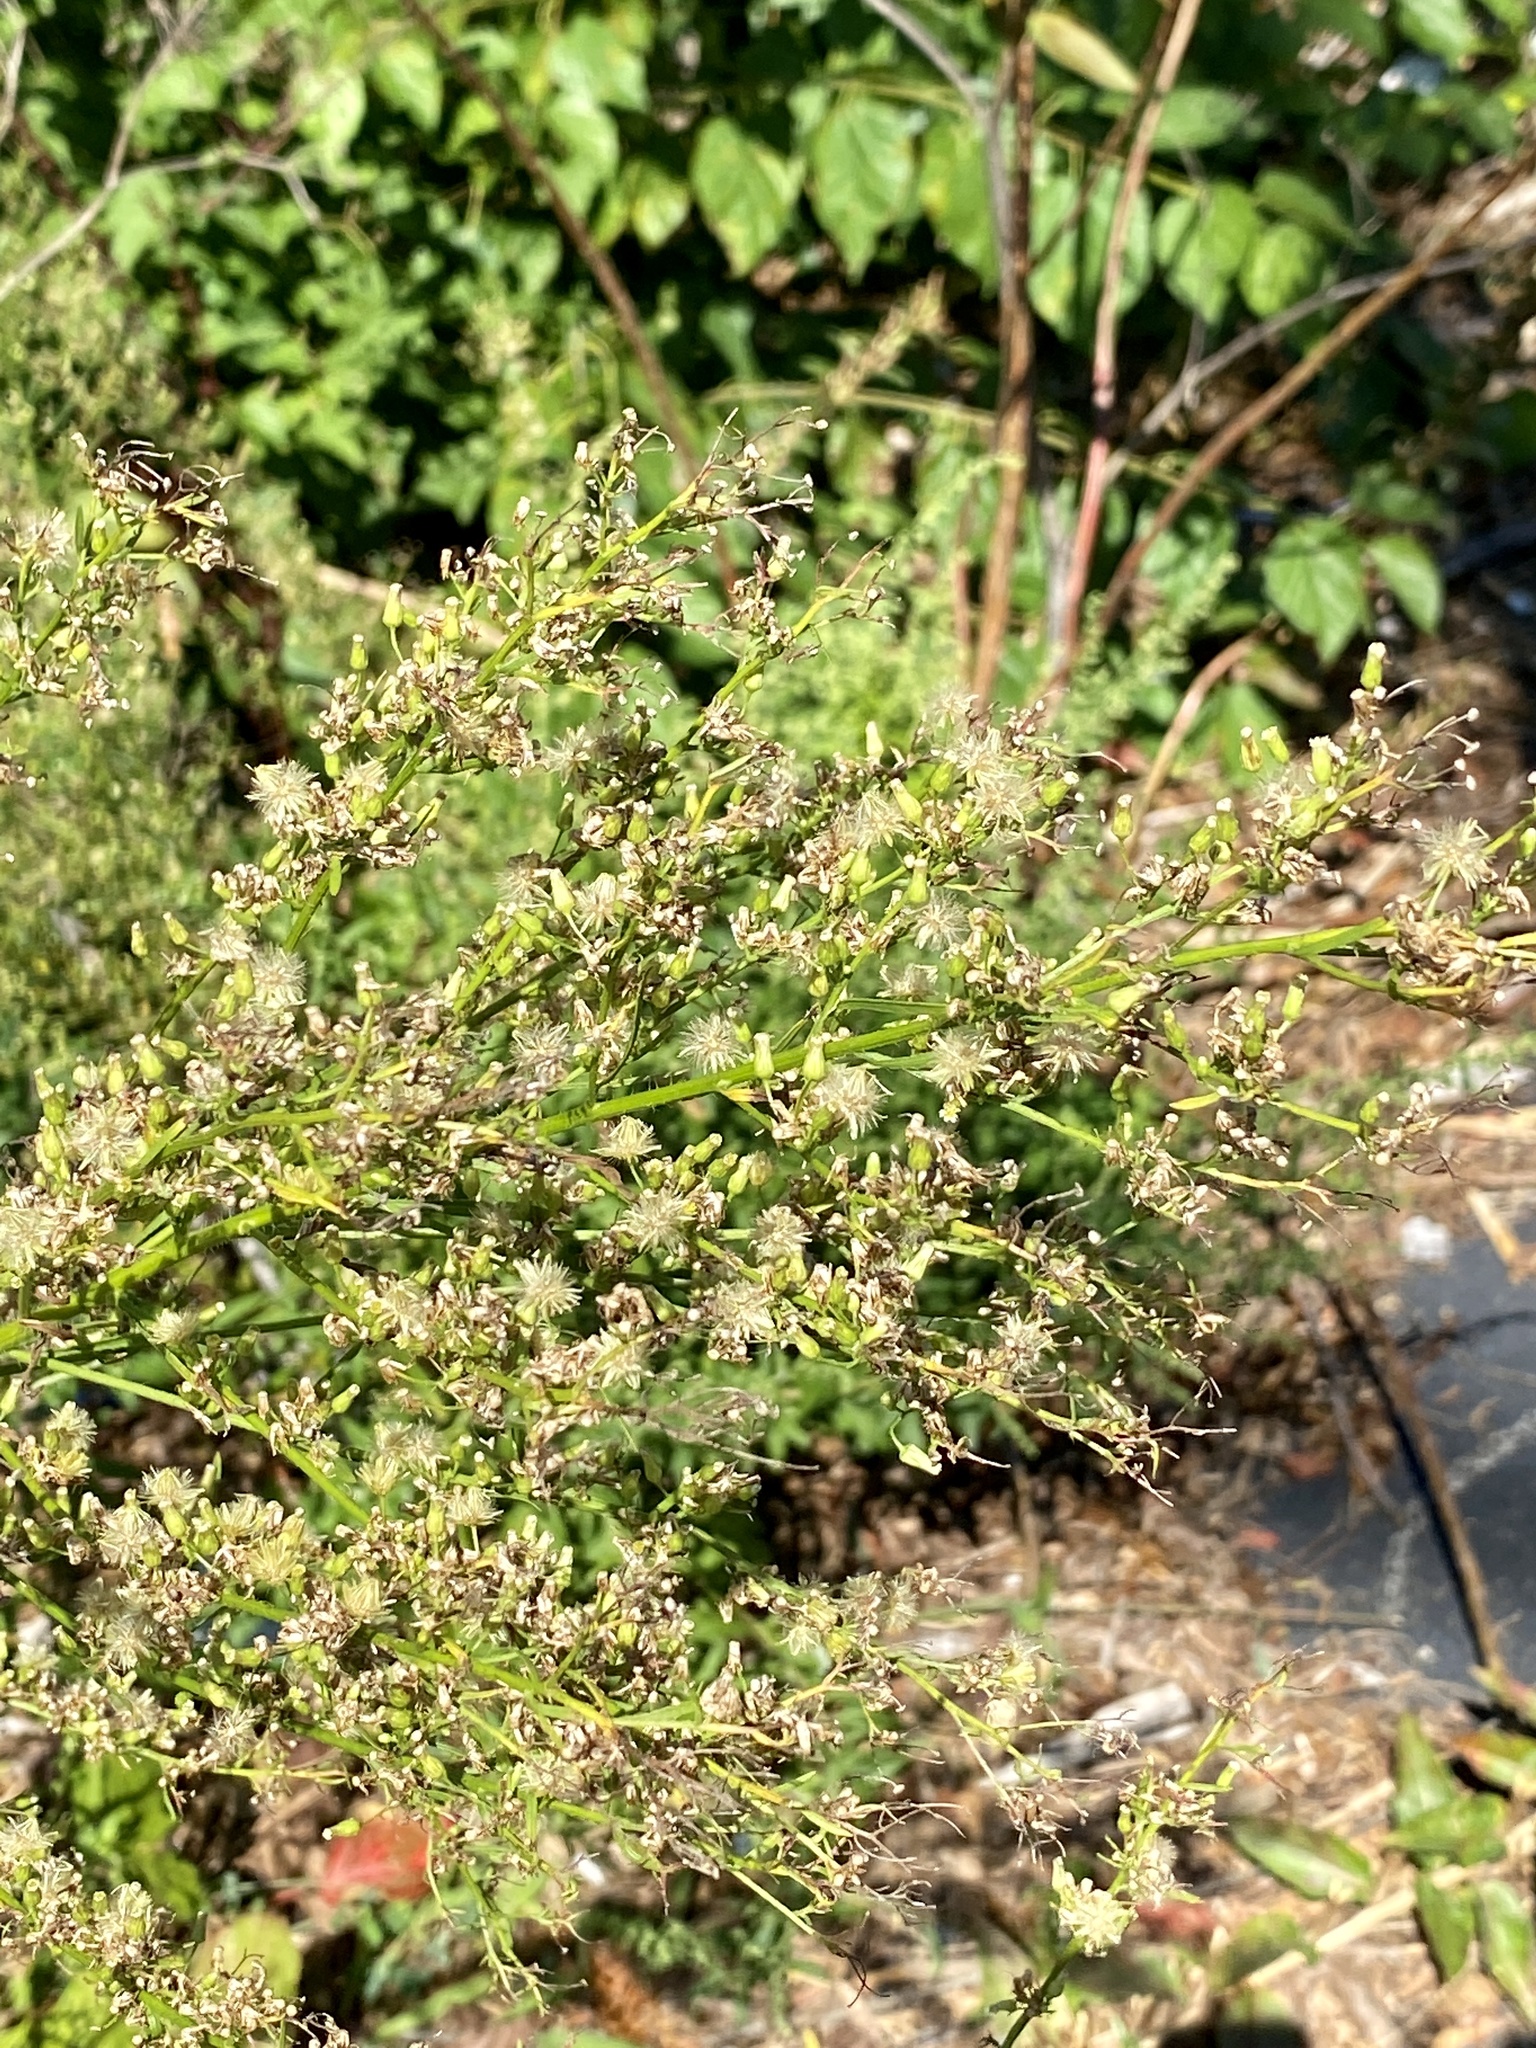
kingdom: Plantae
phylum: Tracheophyta
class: Magnoliopsida
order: Asterales
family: Asteraceae
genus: Erigeron
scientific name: Erigeron canadensis
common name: Canadian fleabane
